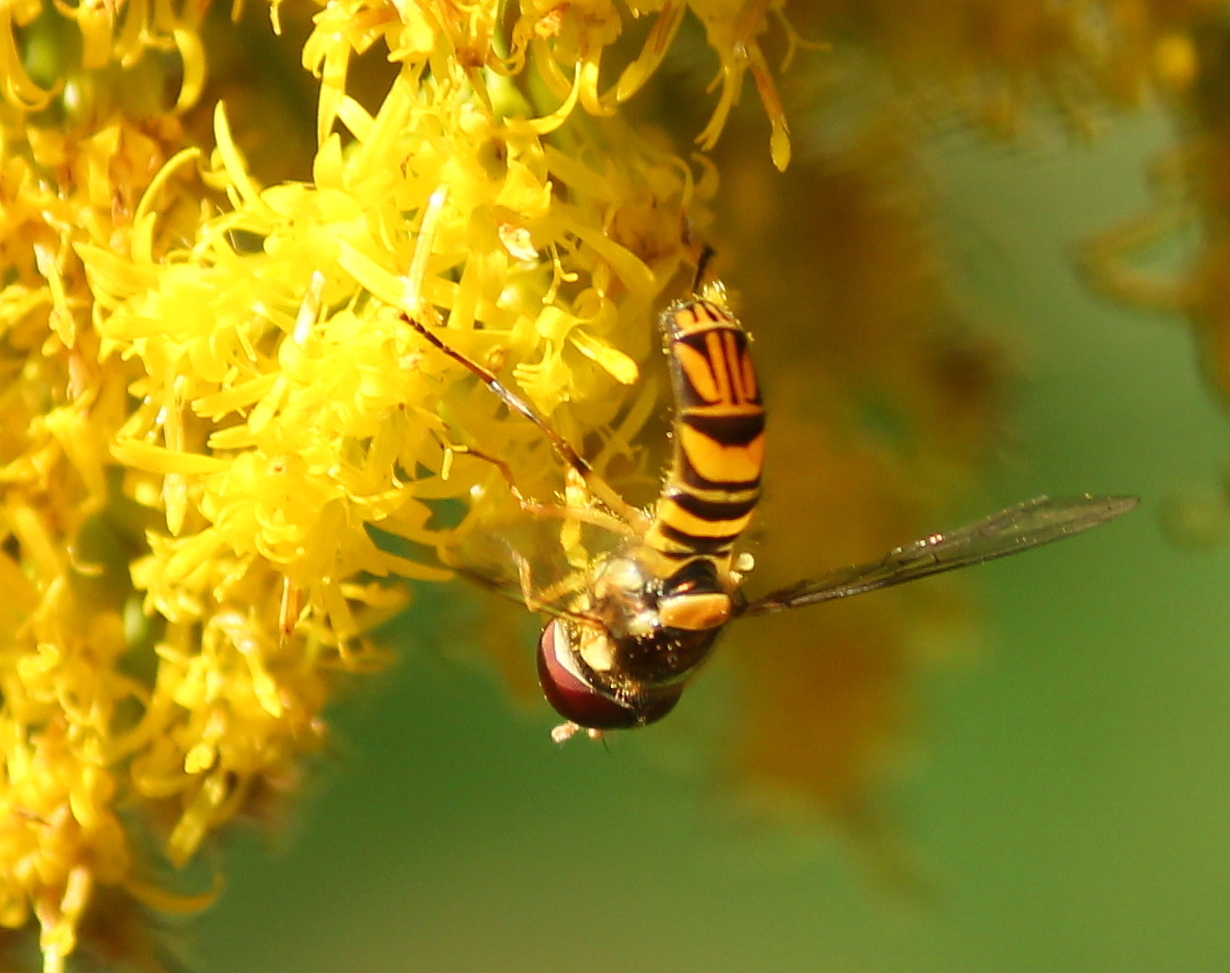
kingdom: Animalia
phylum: Arthropoda
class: Insecta
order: Diptera
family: Syrphidae
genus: Allograpta
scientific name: Allograpta obliqua
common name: Common oblique syrphid
